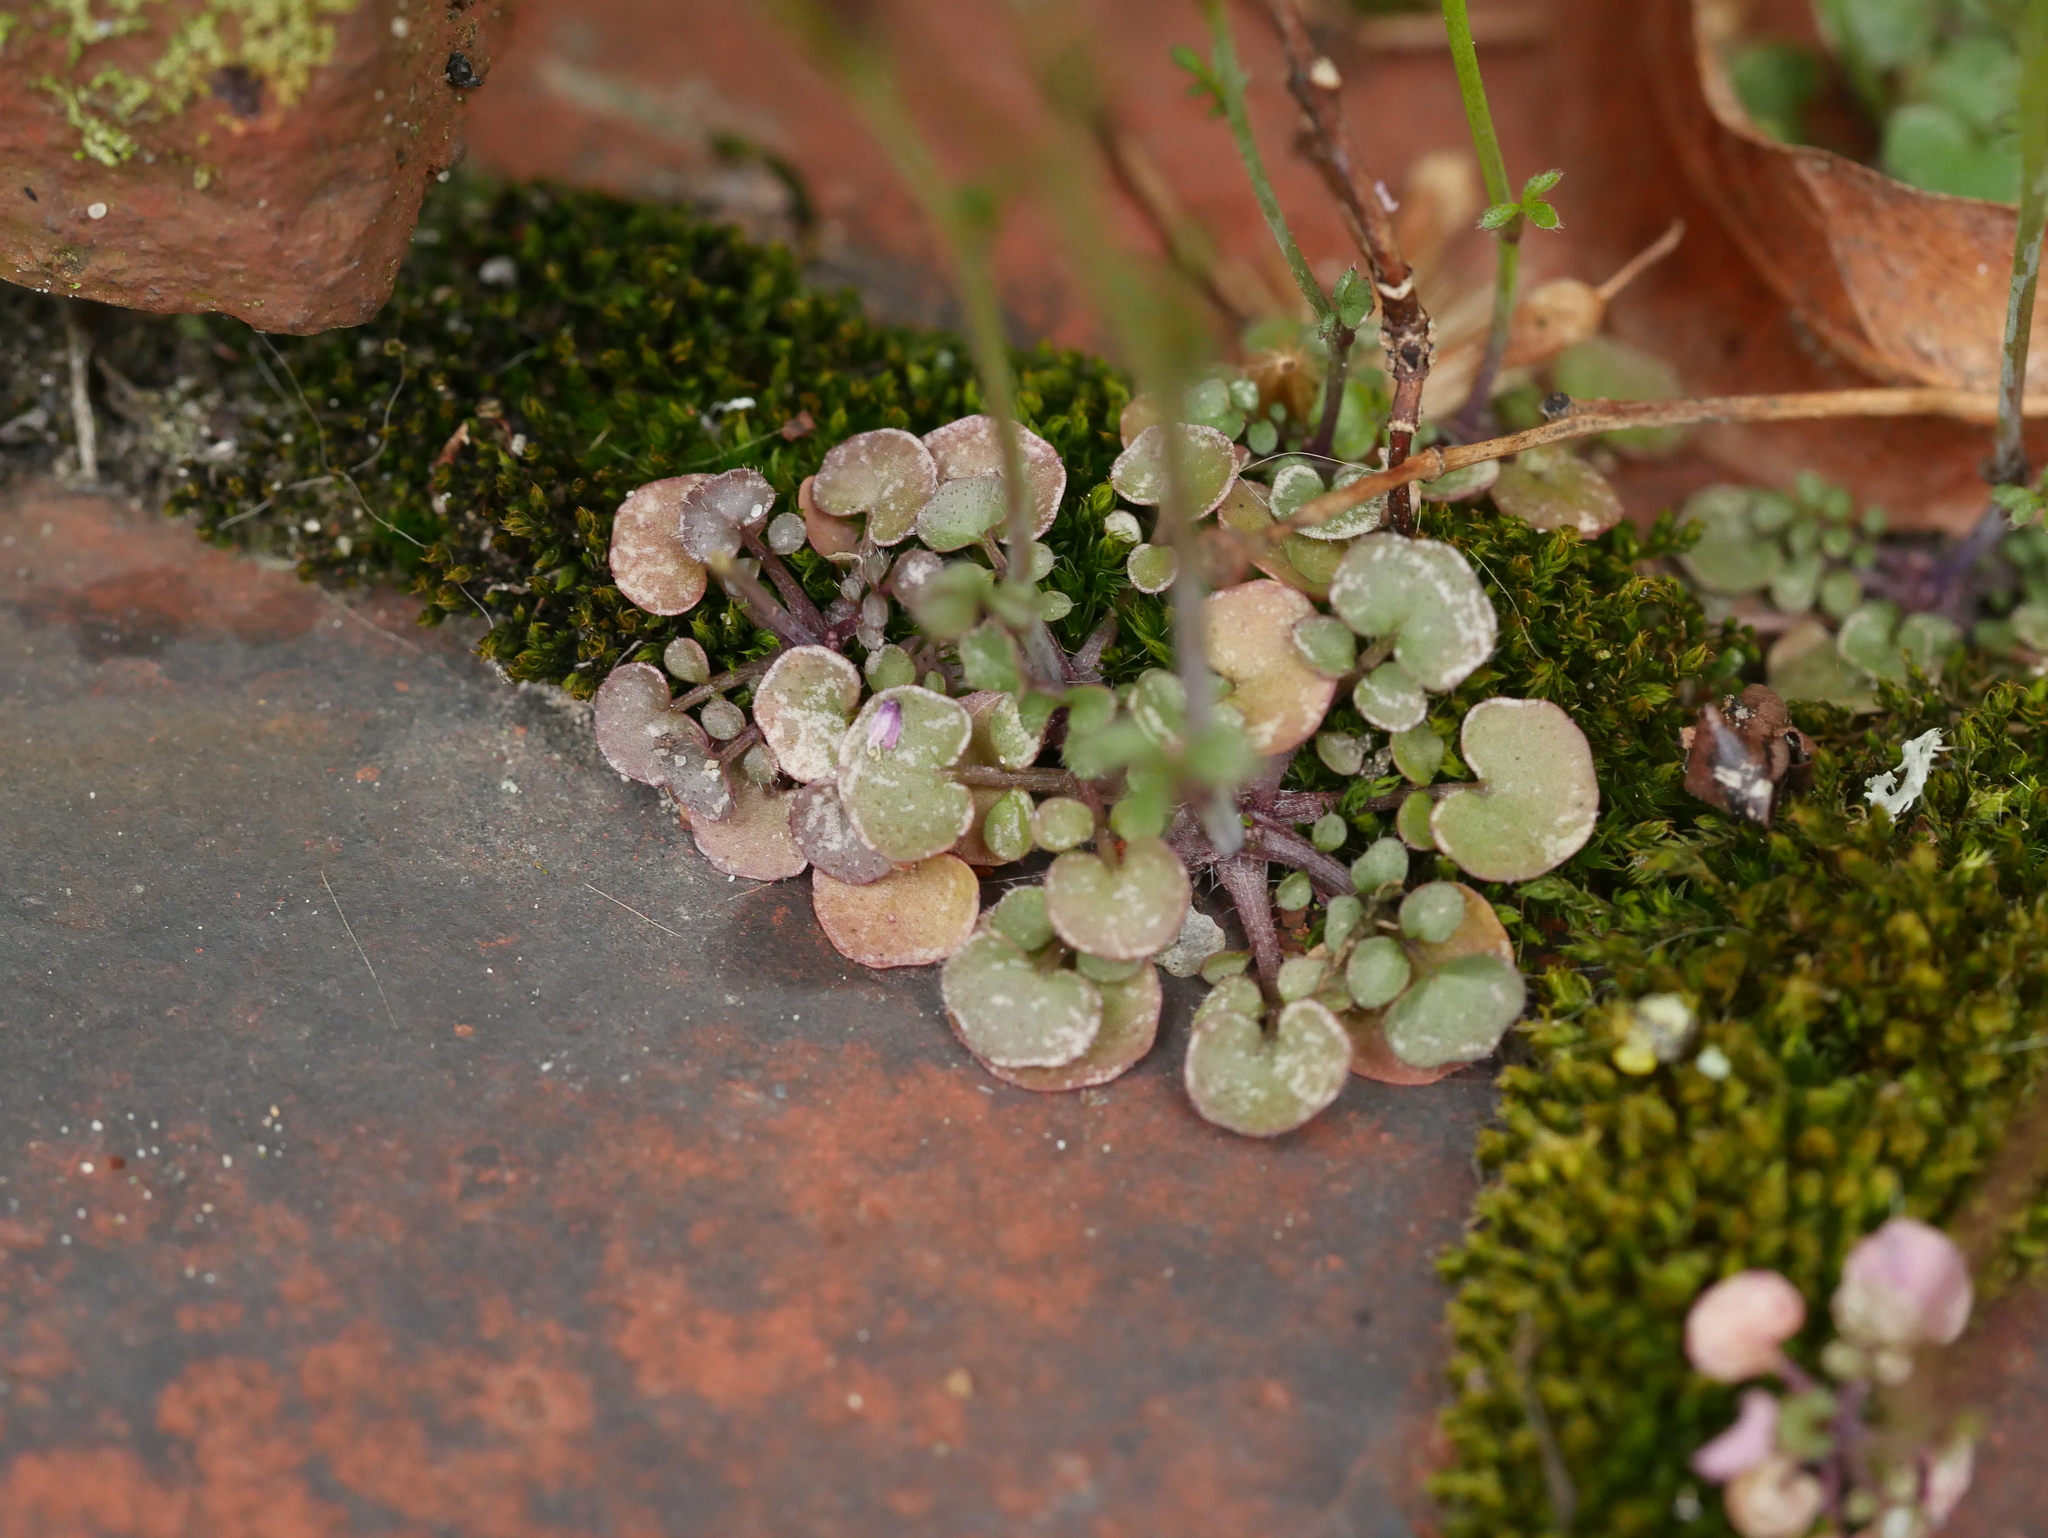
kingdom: Plantae
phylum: Tracheophyta
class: Magnoliopsida
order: Brassicales
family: Brassicaceae
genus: Cardamine
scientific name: Cardamine hirsuta
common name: Hairy bittercress
